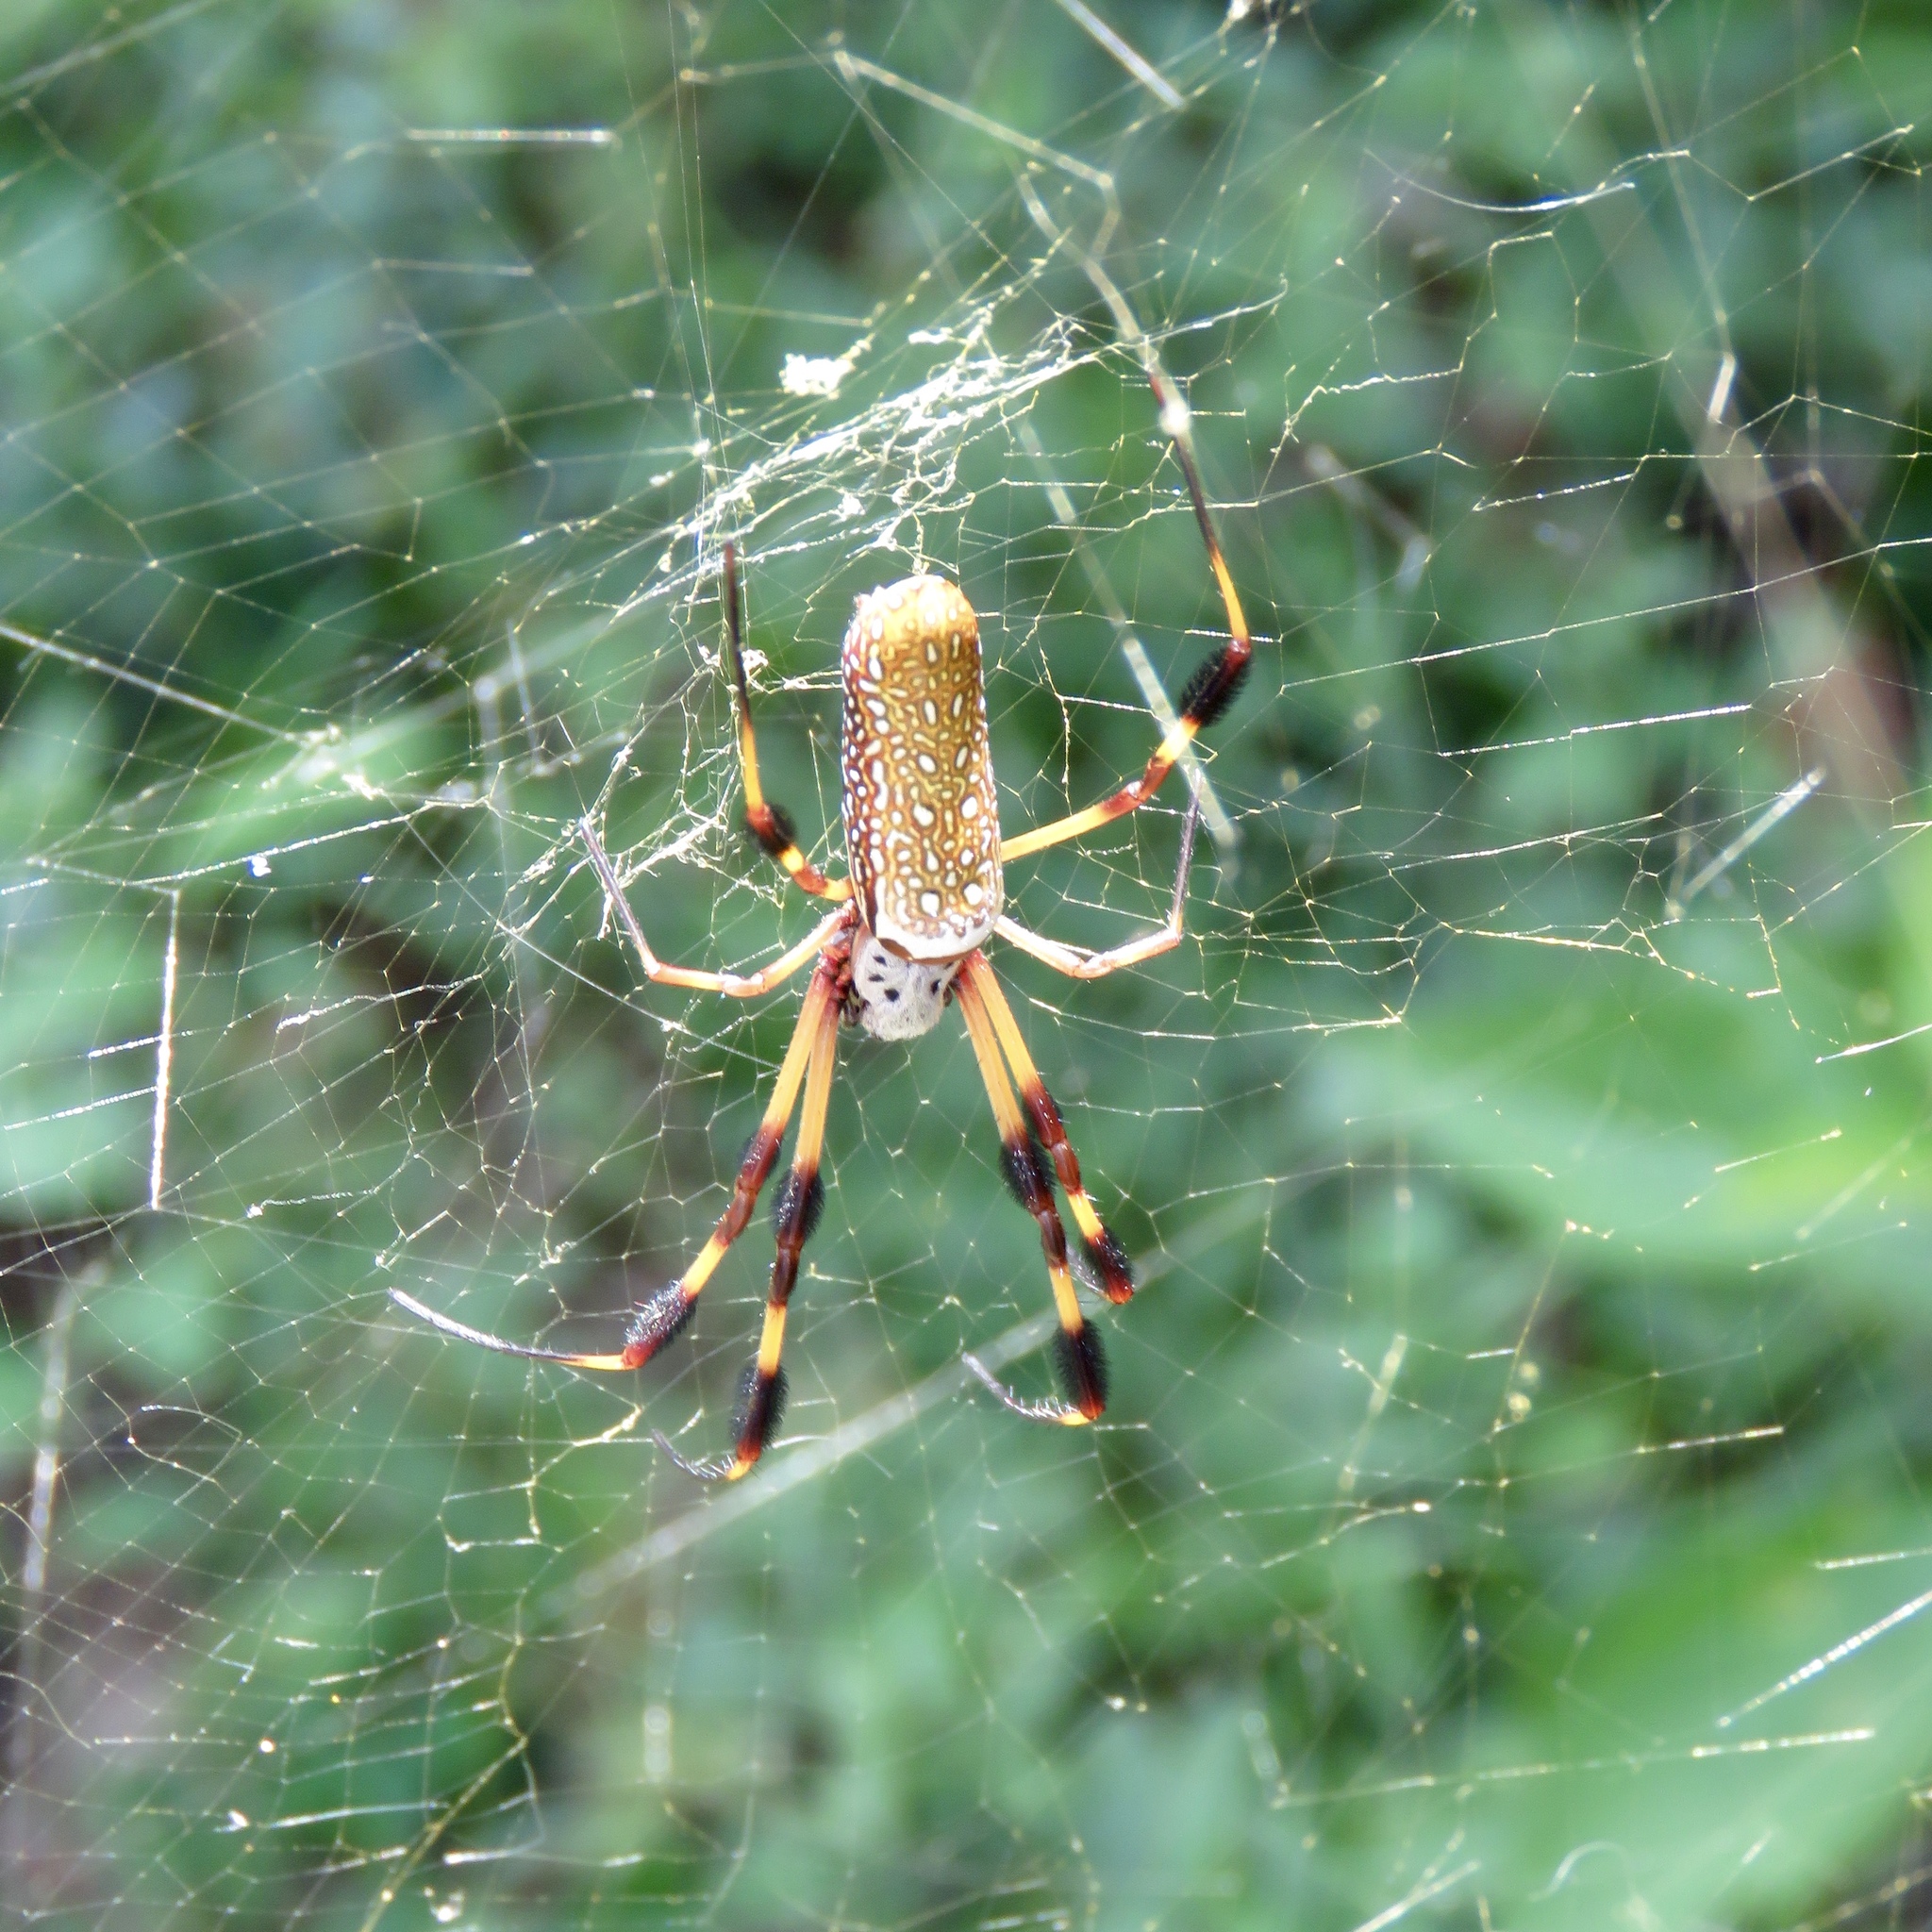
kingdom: Animalia
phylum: Arthropoda
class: Arachnida
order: Araneae
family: Araneidae
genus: Trichonephila
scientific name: Trichonephila clavipes
